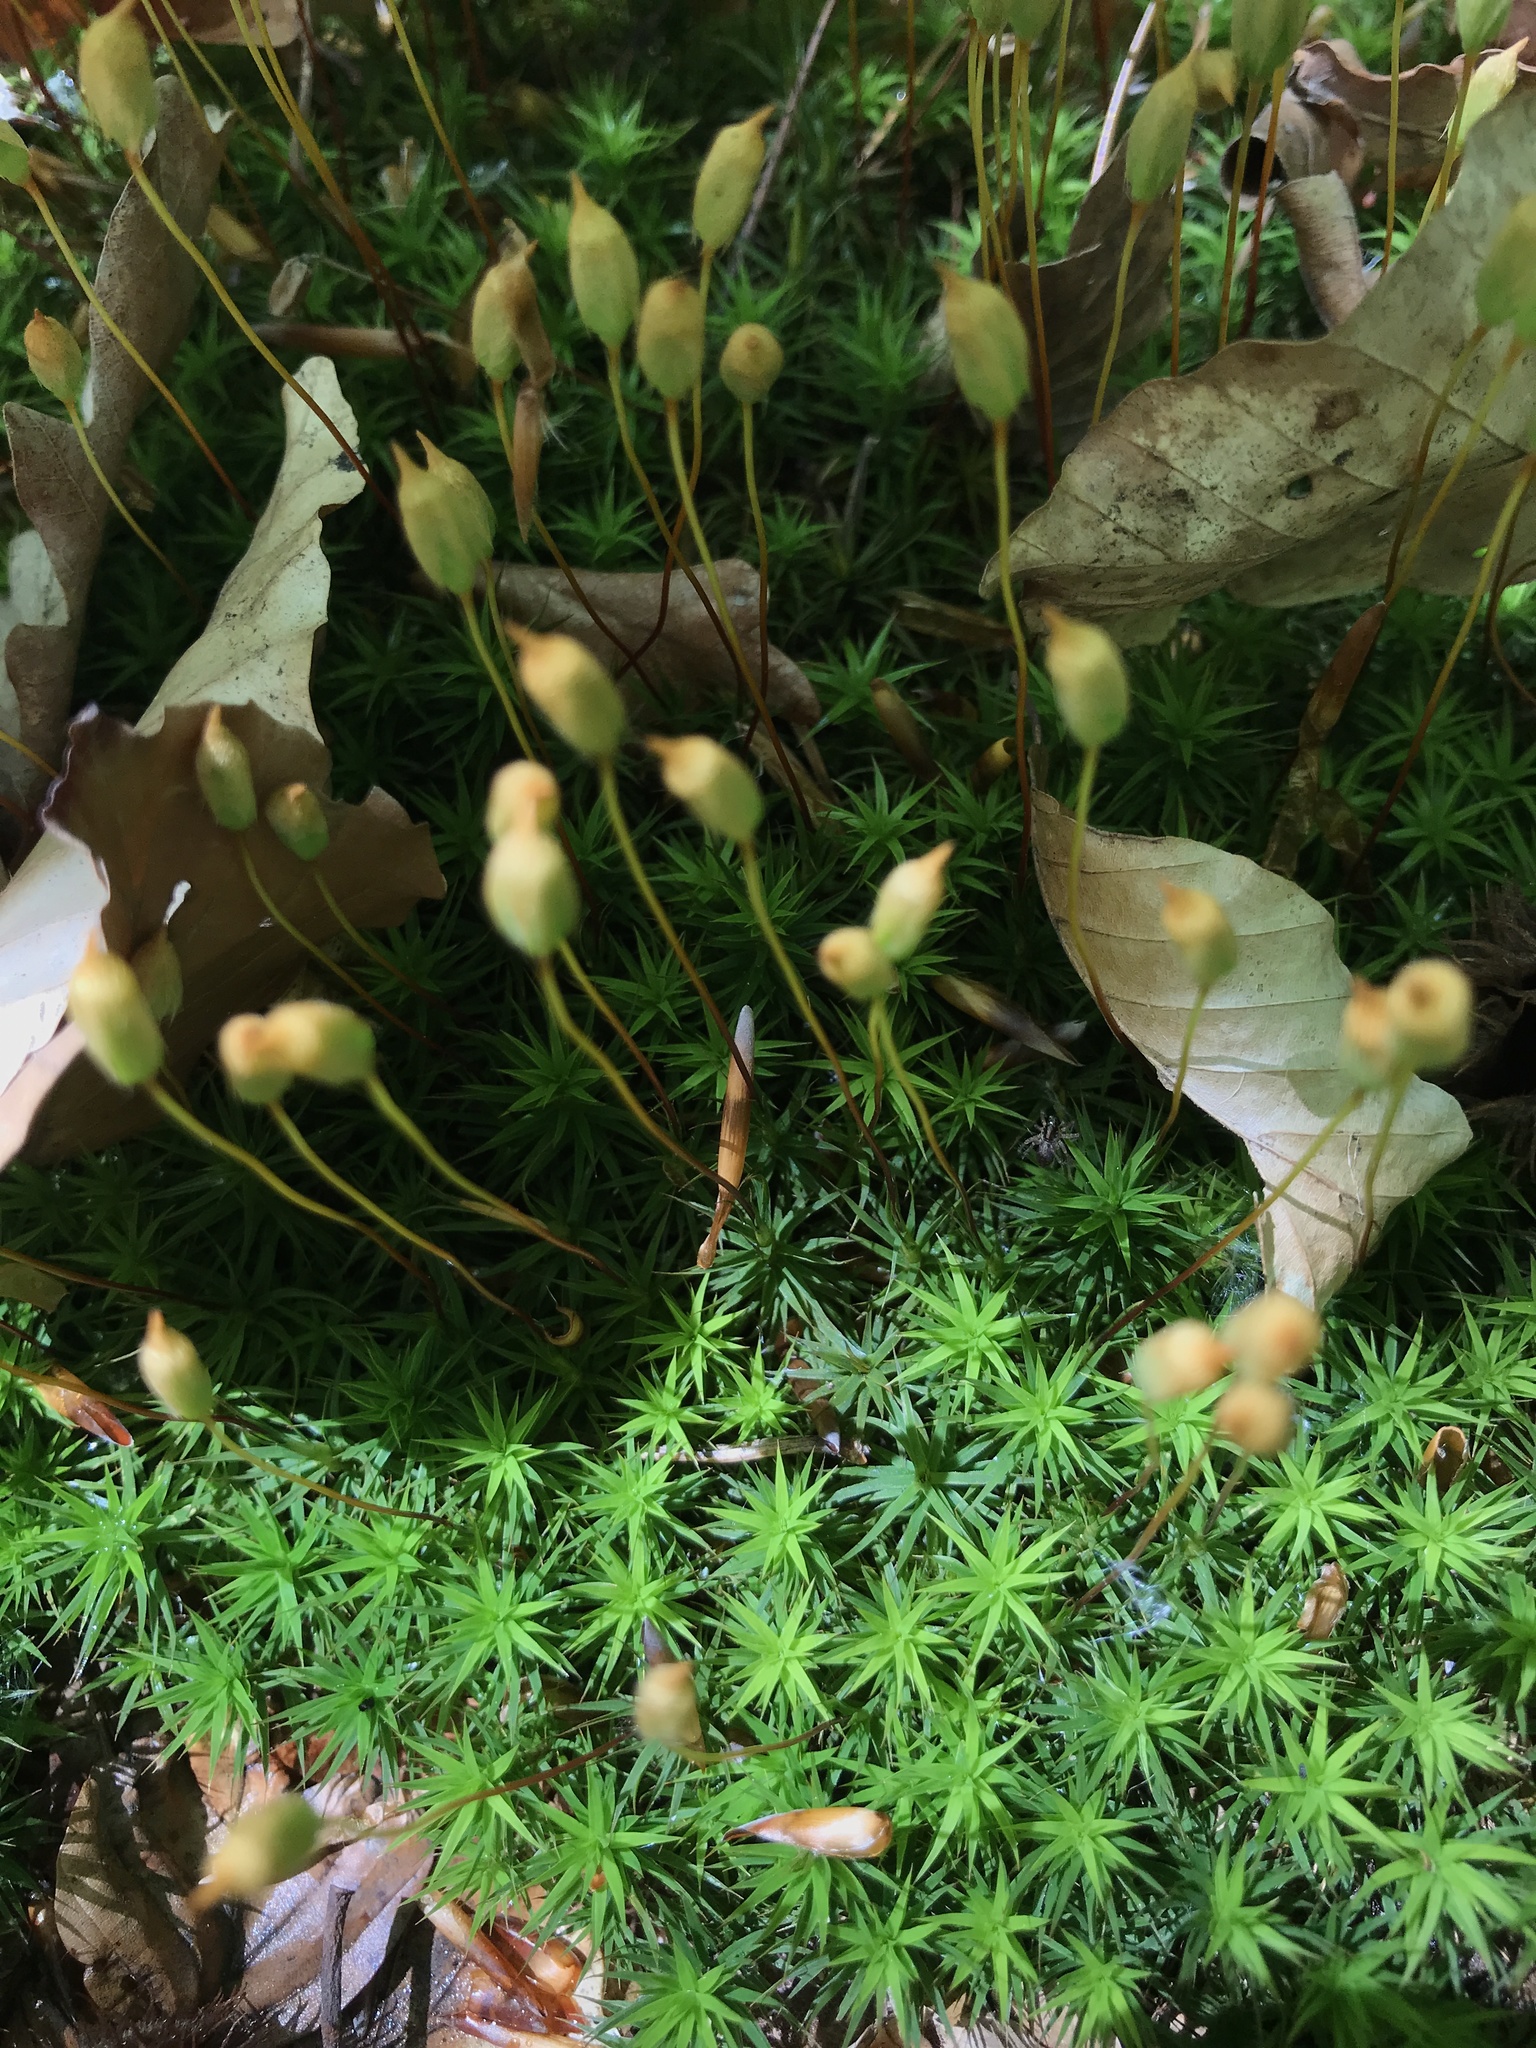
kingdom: Plantae
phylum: Bryophyta
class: Polytrichopsida
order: Polytrichales
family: Polytrichaceae
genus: Polytrichum
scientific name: Polytrichum formosum
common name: Bank haircap moss
